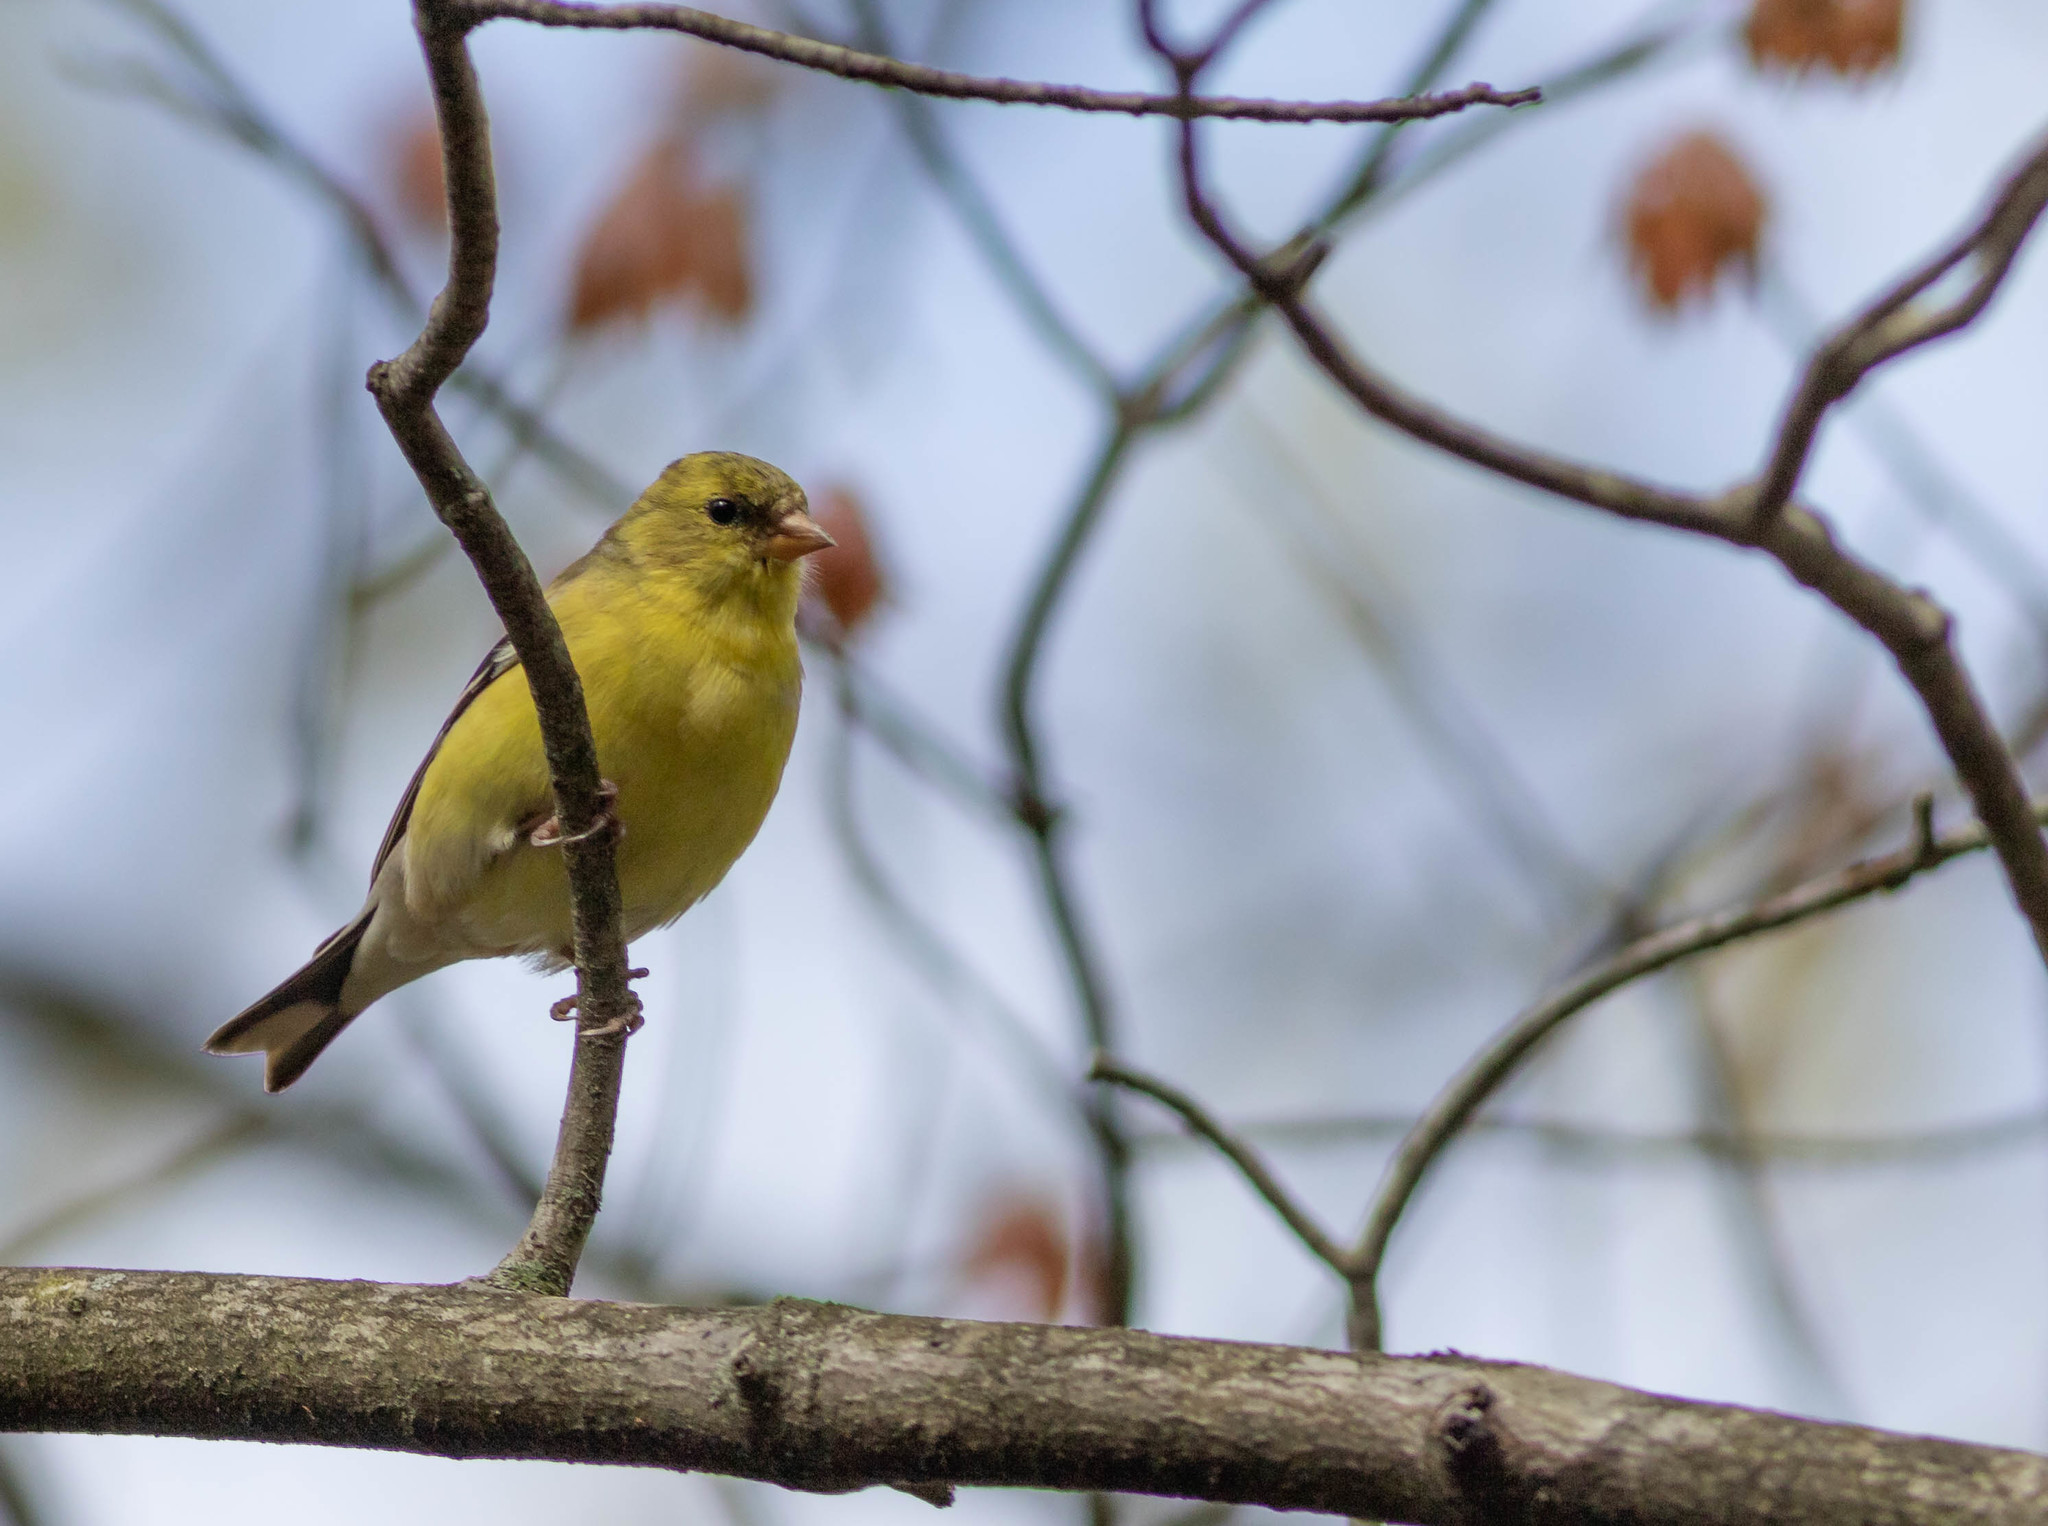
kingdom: Animalia
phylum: Chordata
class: Aves
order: Passeriformes
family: Fringillidae
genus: Spinus
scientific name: Spinus tristis
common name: American goldfinch
